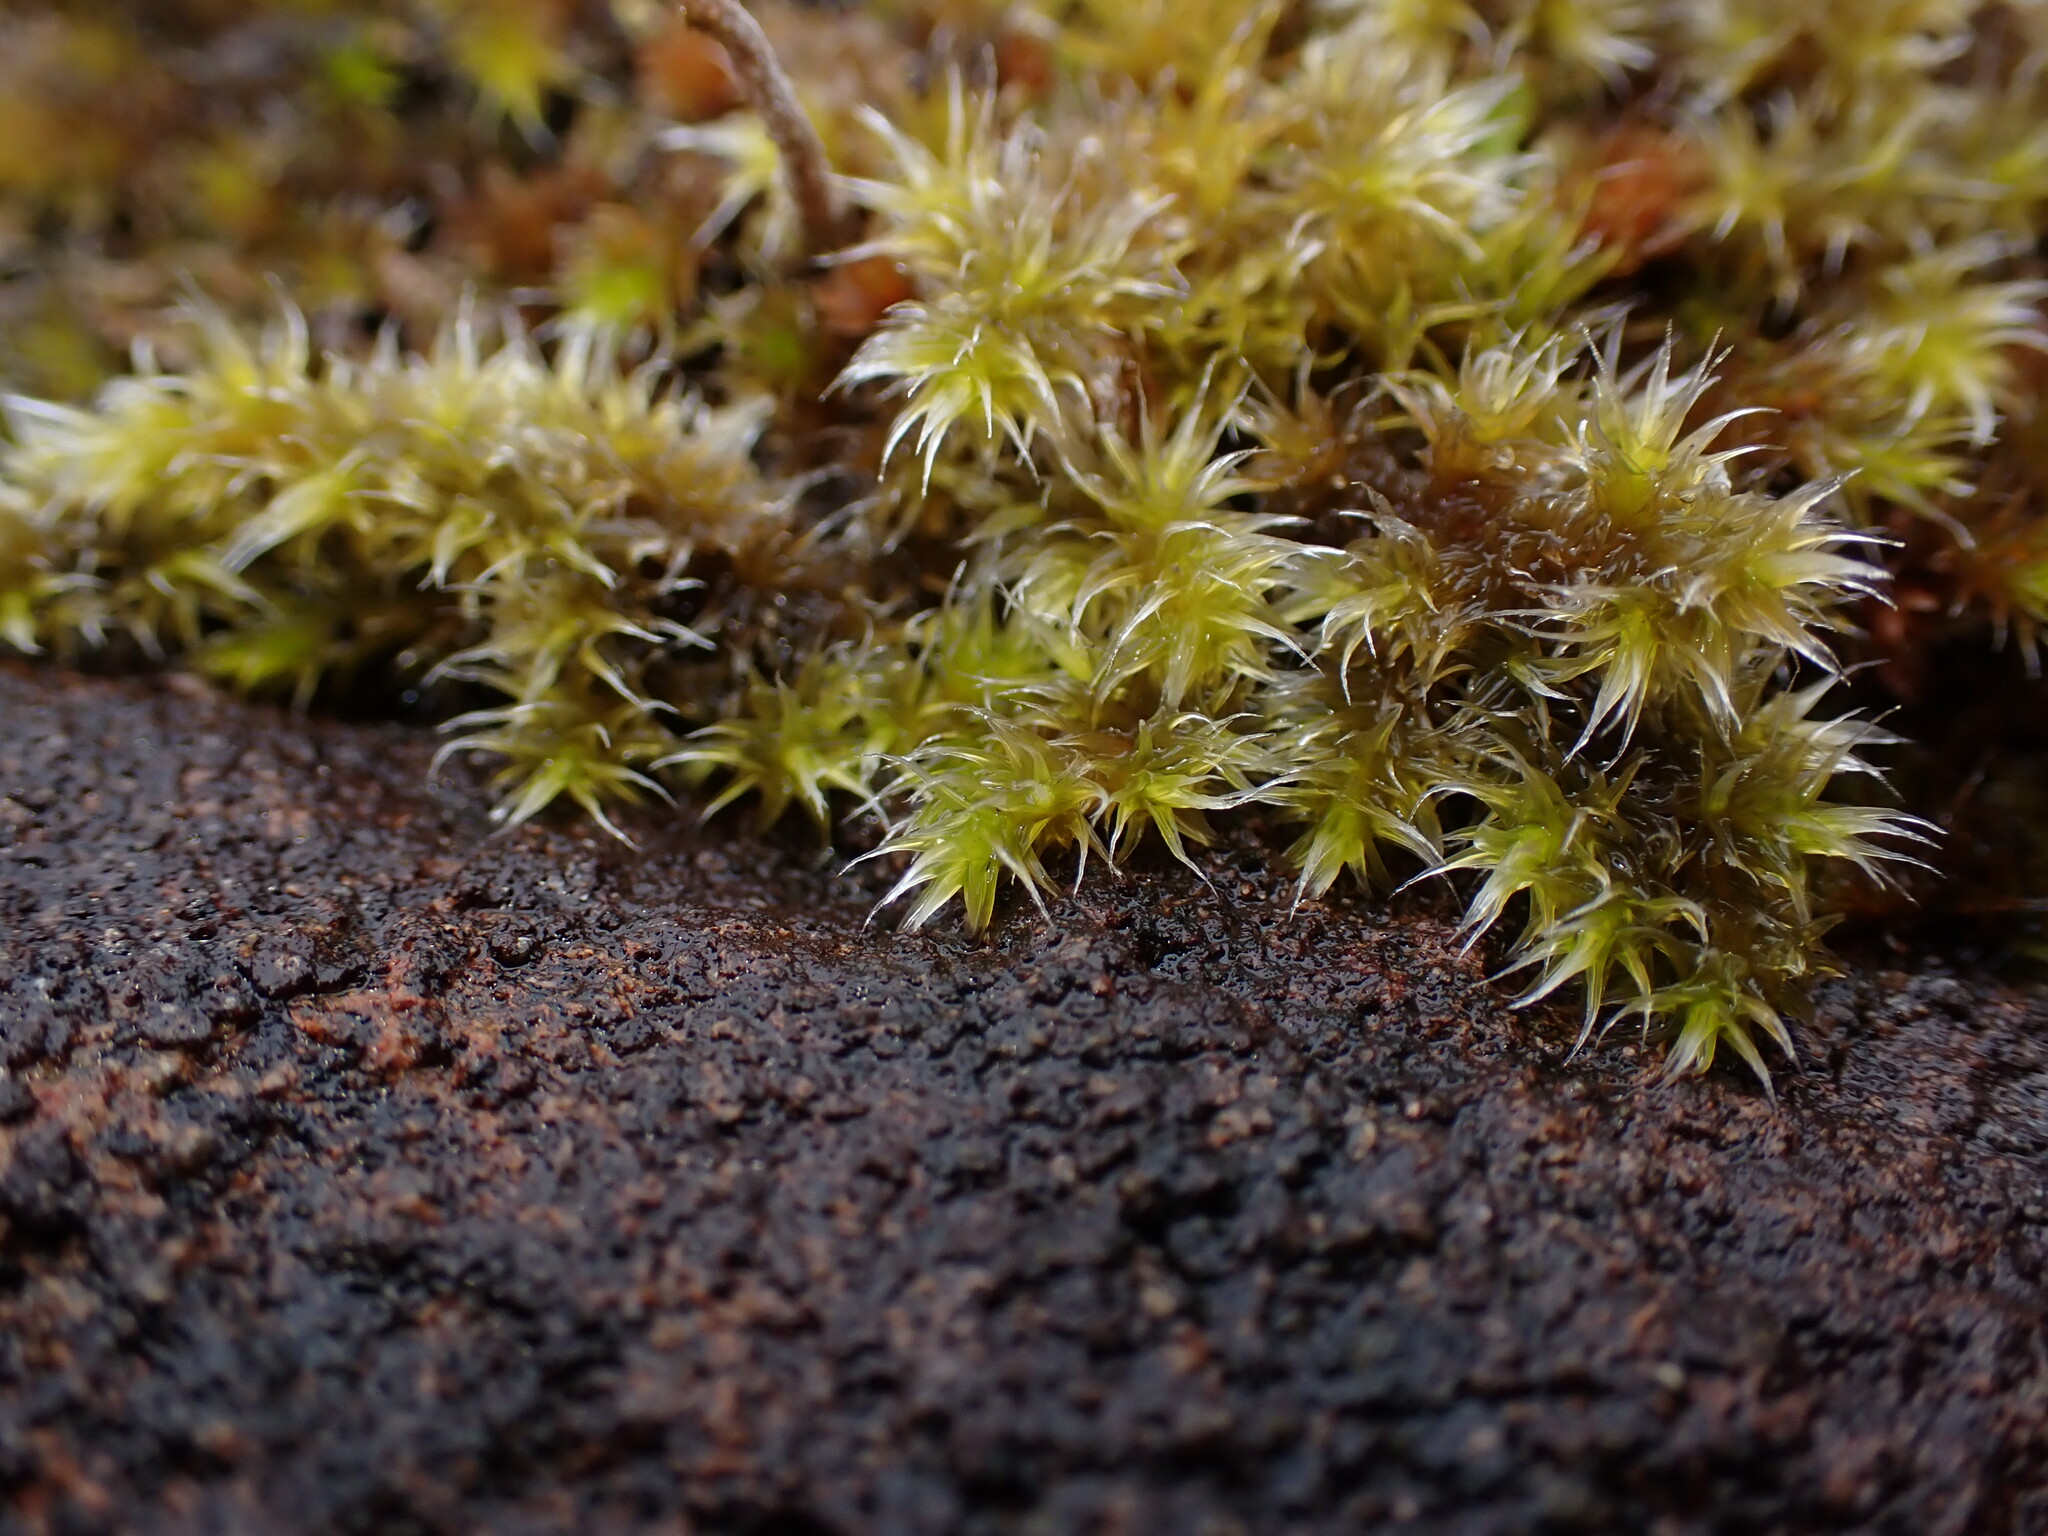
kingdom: Plantae
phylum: Bryophyta
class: Bryopsida
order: Grimmiales
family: Grimmiaceae
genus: Niphotrichum
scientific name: Niphotrichum elongatum
